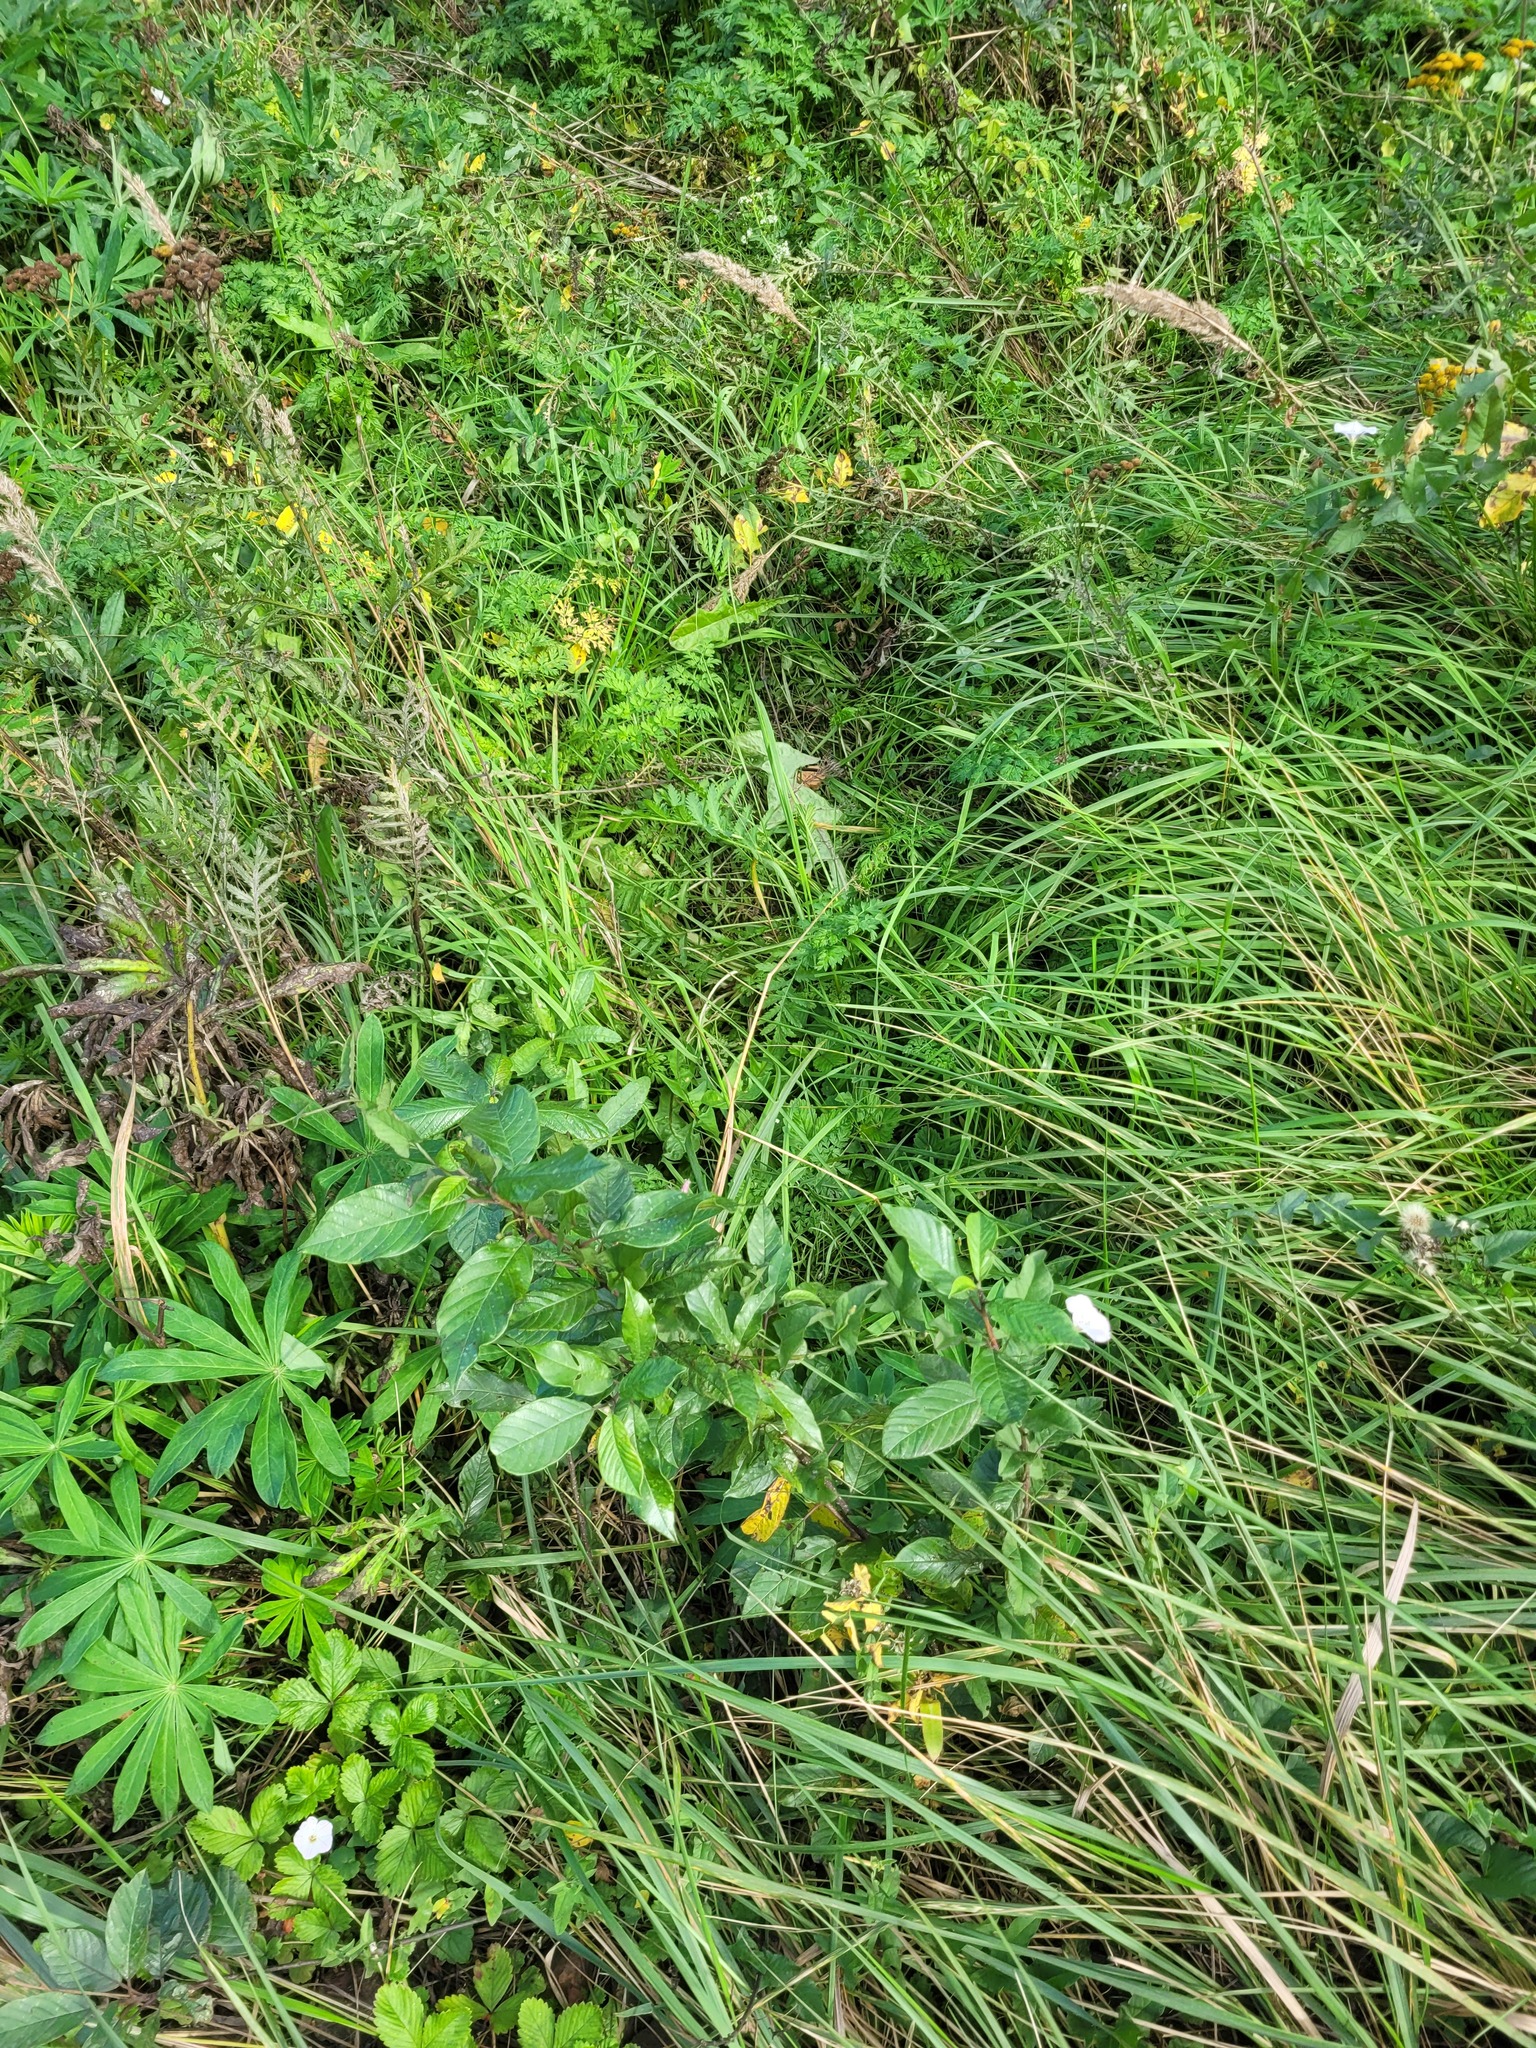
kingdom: Plantae
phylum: Tracheophyta
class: Magnoliopsida
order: Rosales
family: Rhamnaceae
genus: Frangula
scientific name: Frangula alnus
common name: Alder buckthorn
